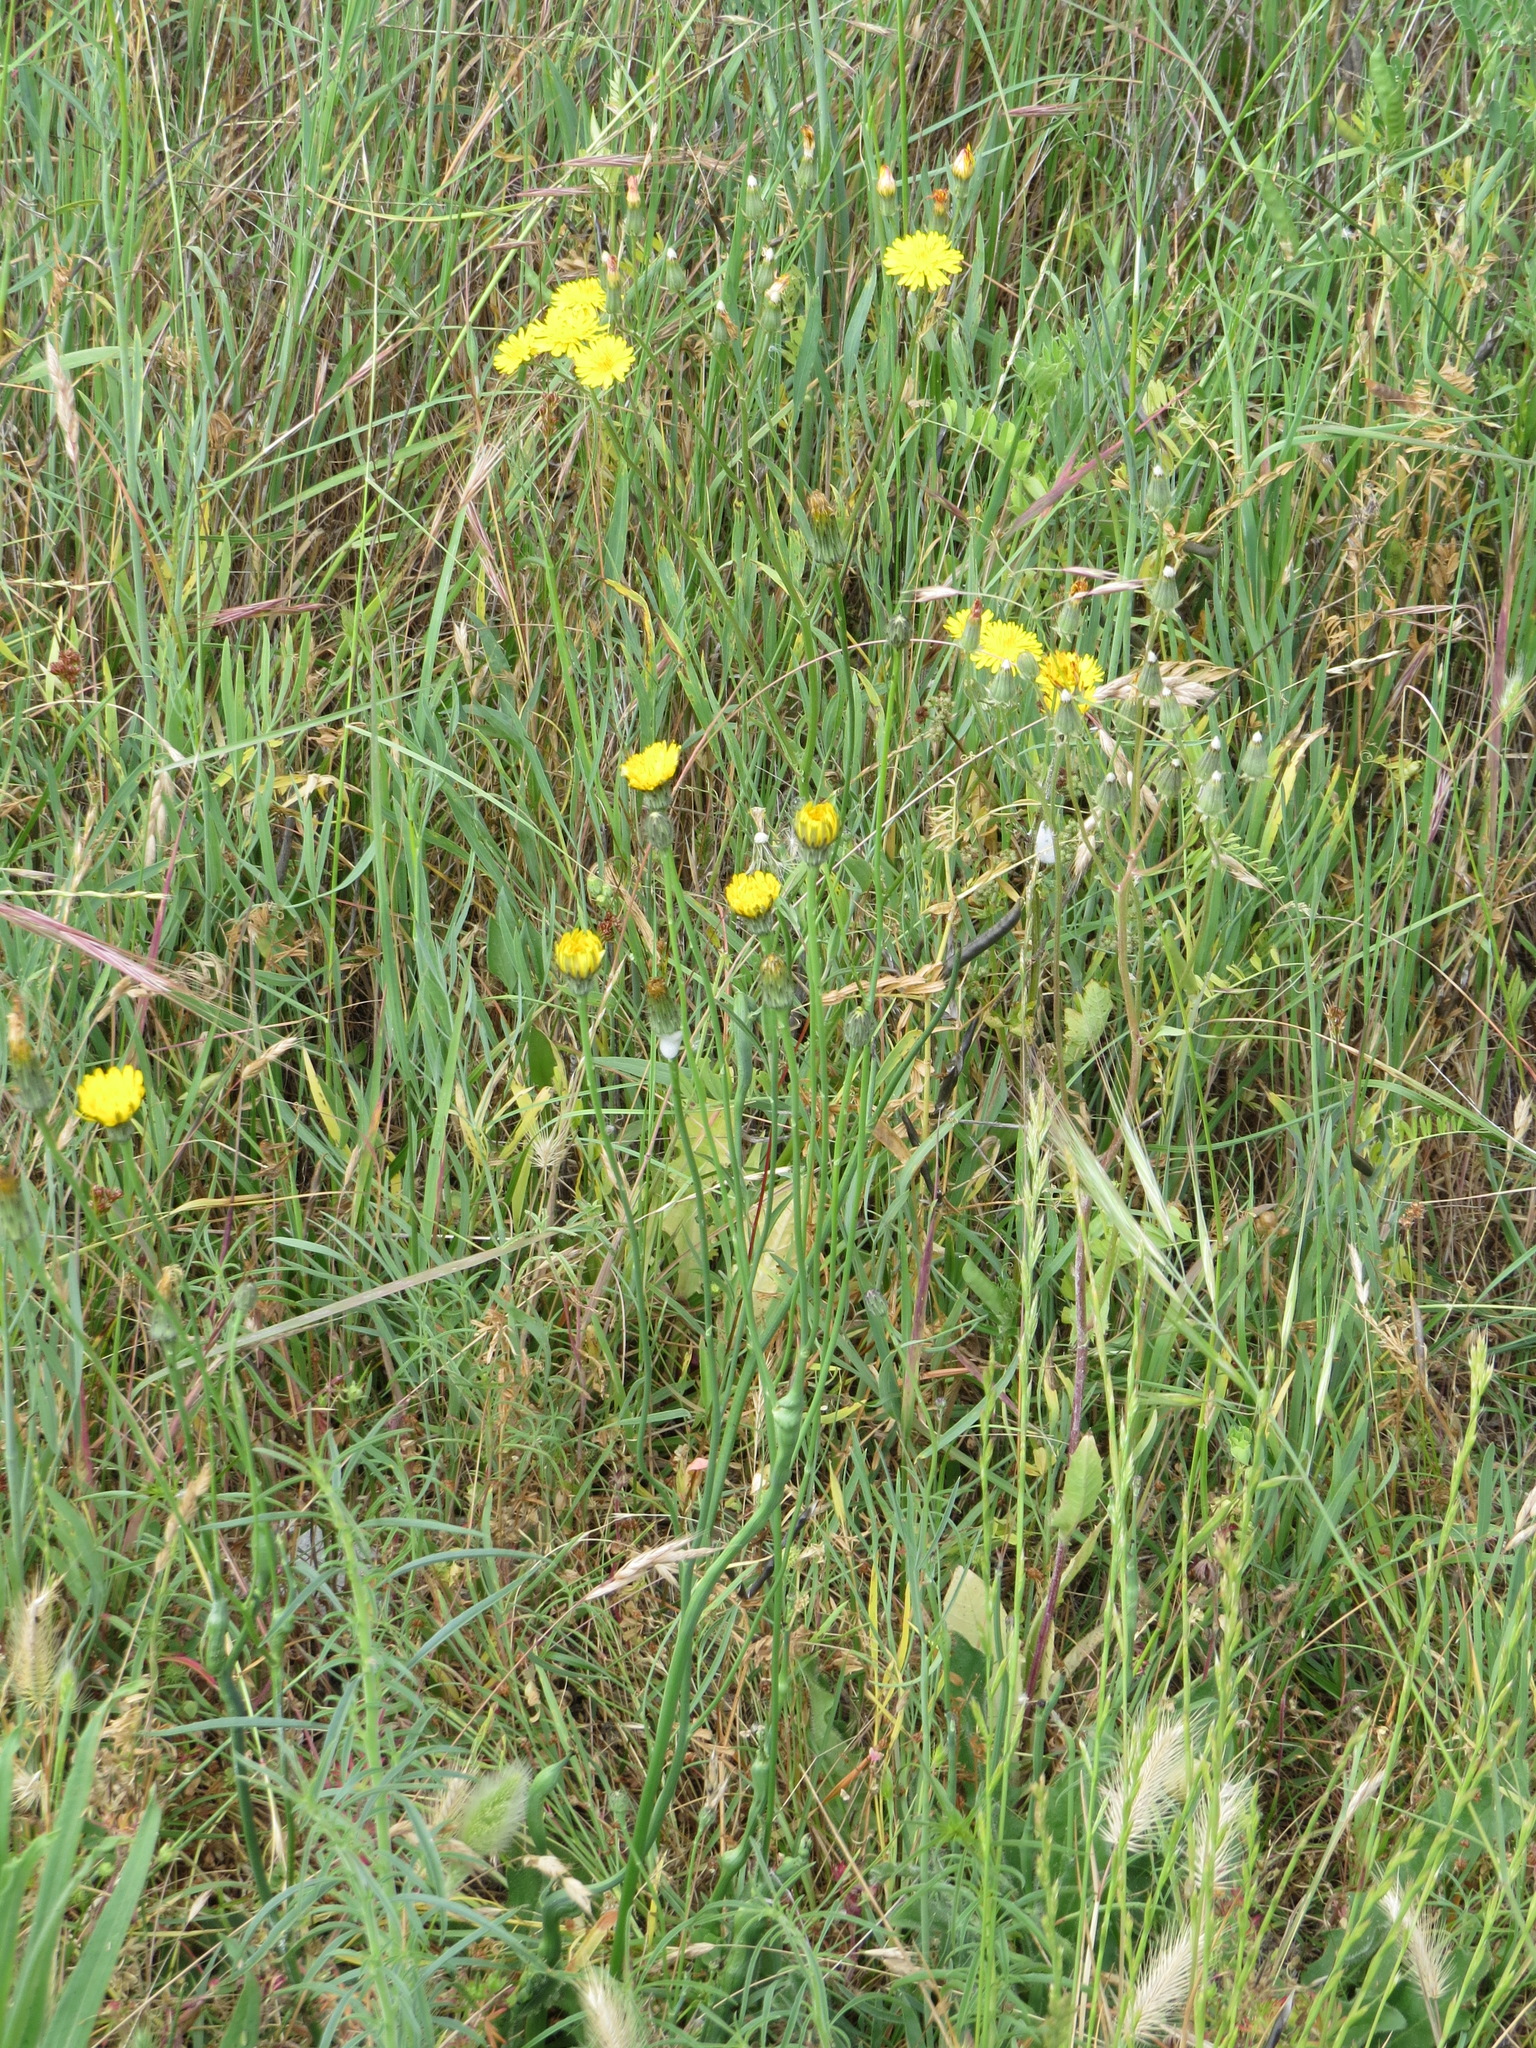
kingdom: Animalia
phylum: Arthropoda
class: Insecta
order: Hymenoptera
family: Cynipidae
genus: Phanacis
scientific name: Phanacis hypochoeridis
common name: Gall wasp
